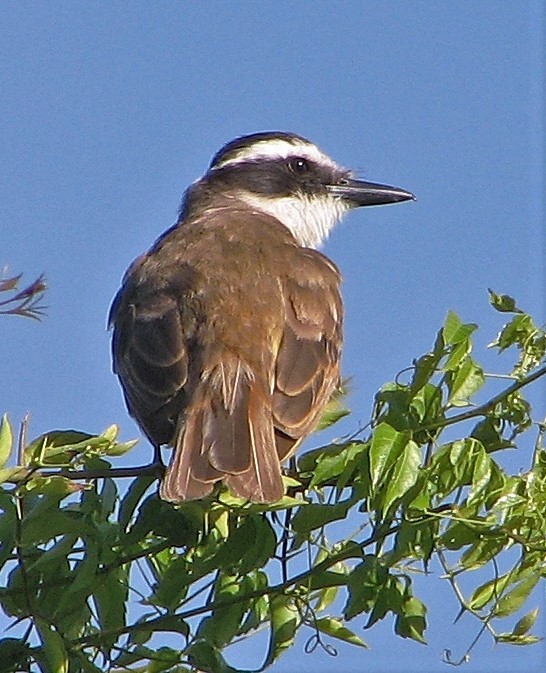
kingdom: Animalia
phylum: Chordata
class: Aves
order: Passeriformes
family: Tyrannidae
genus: Pitangus
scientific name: Pitangus sulphuratus
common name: Great kiskadee
